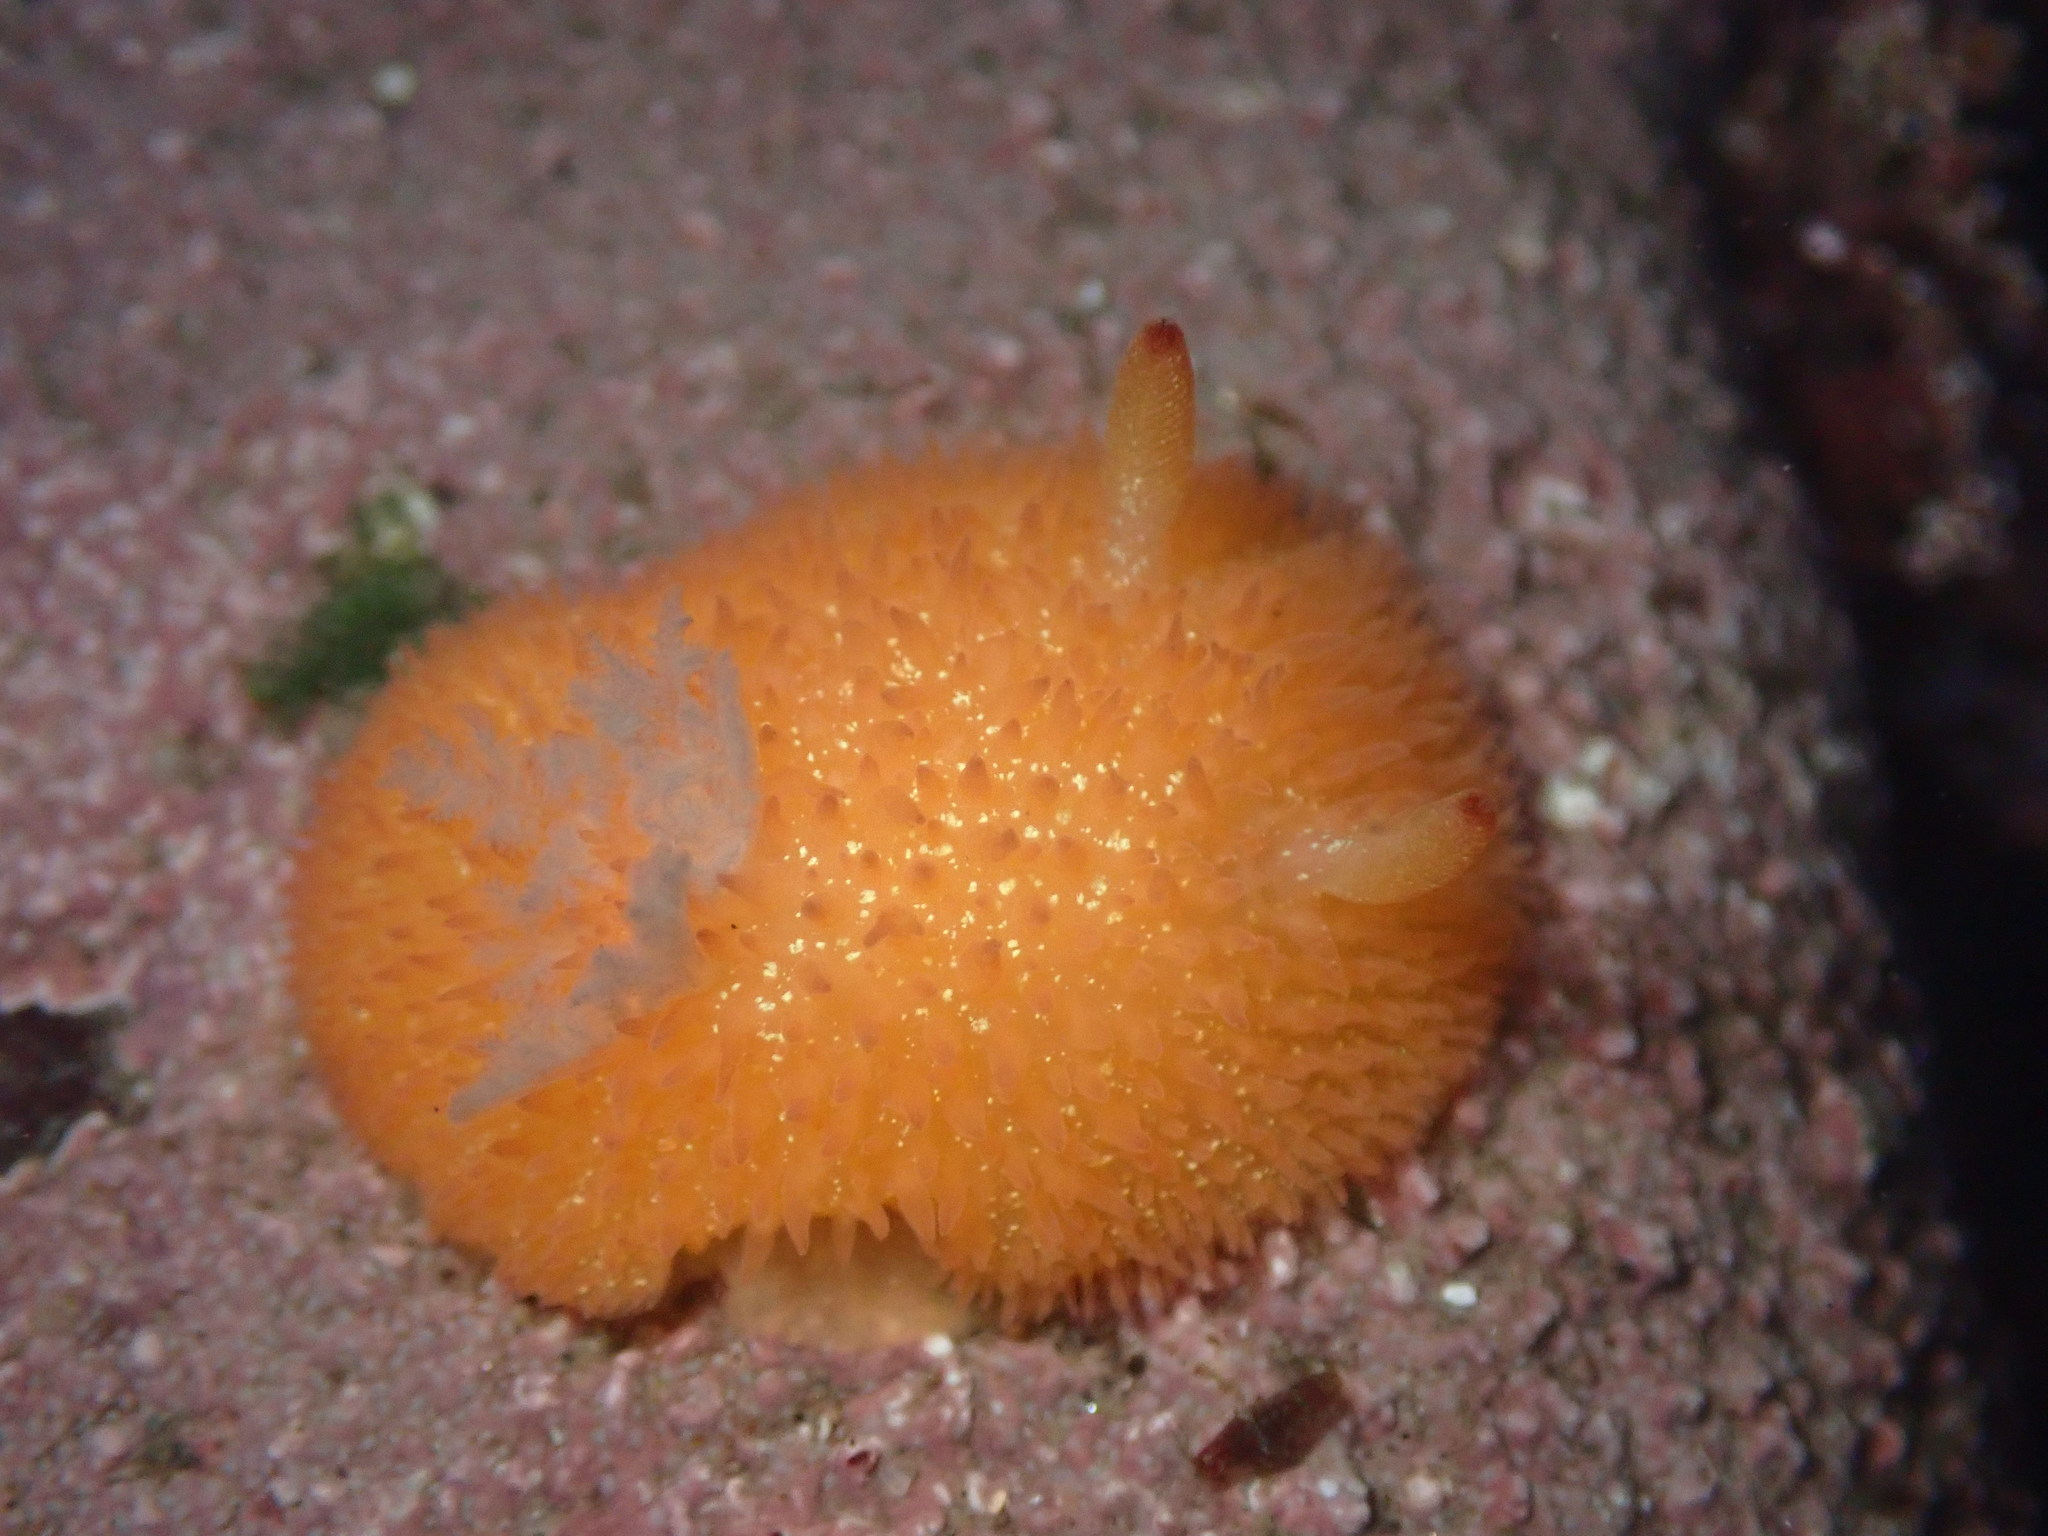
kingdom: Animalia
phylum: Mollusca
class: Gastropoda
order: Nudibranchia
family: Onchidorididae
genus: Acanthodoris
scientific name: Acanthodoris lutea
